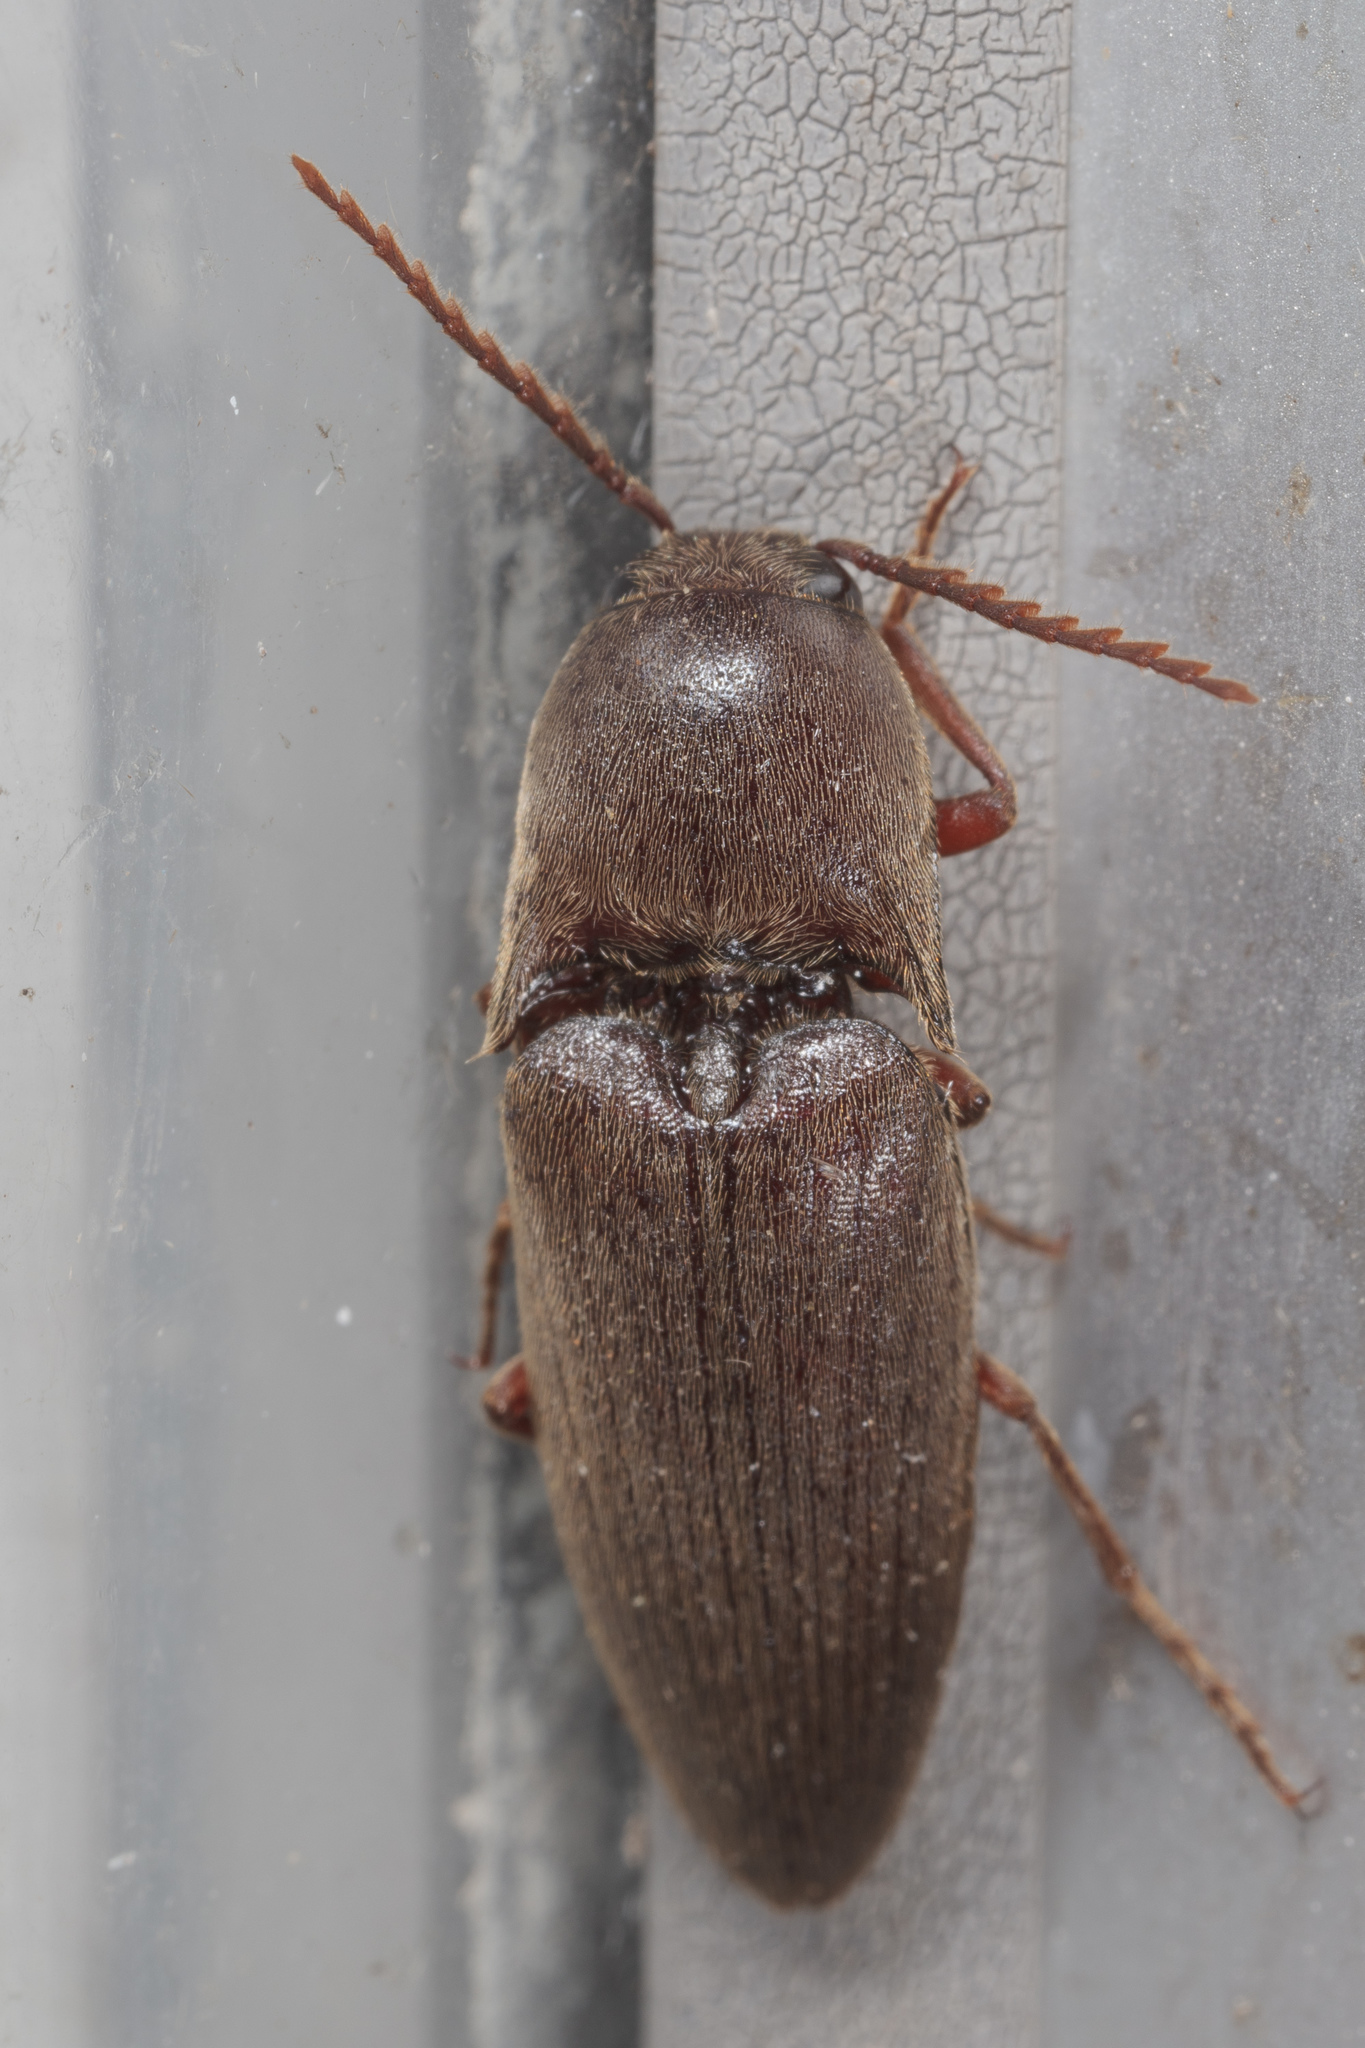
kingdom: Animalia
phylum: Arthropoda
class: Insecta
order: Coleoptera
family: Elateridae
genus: Diplostethus
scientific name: Diplostethus
